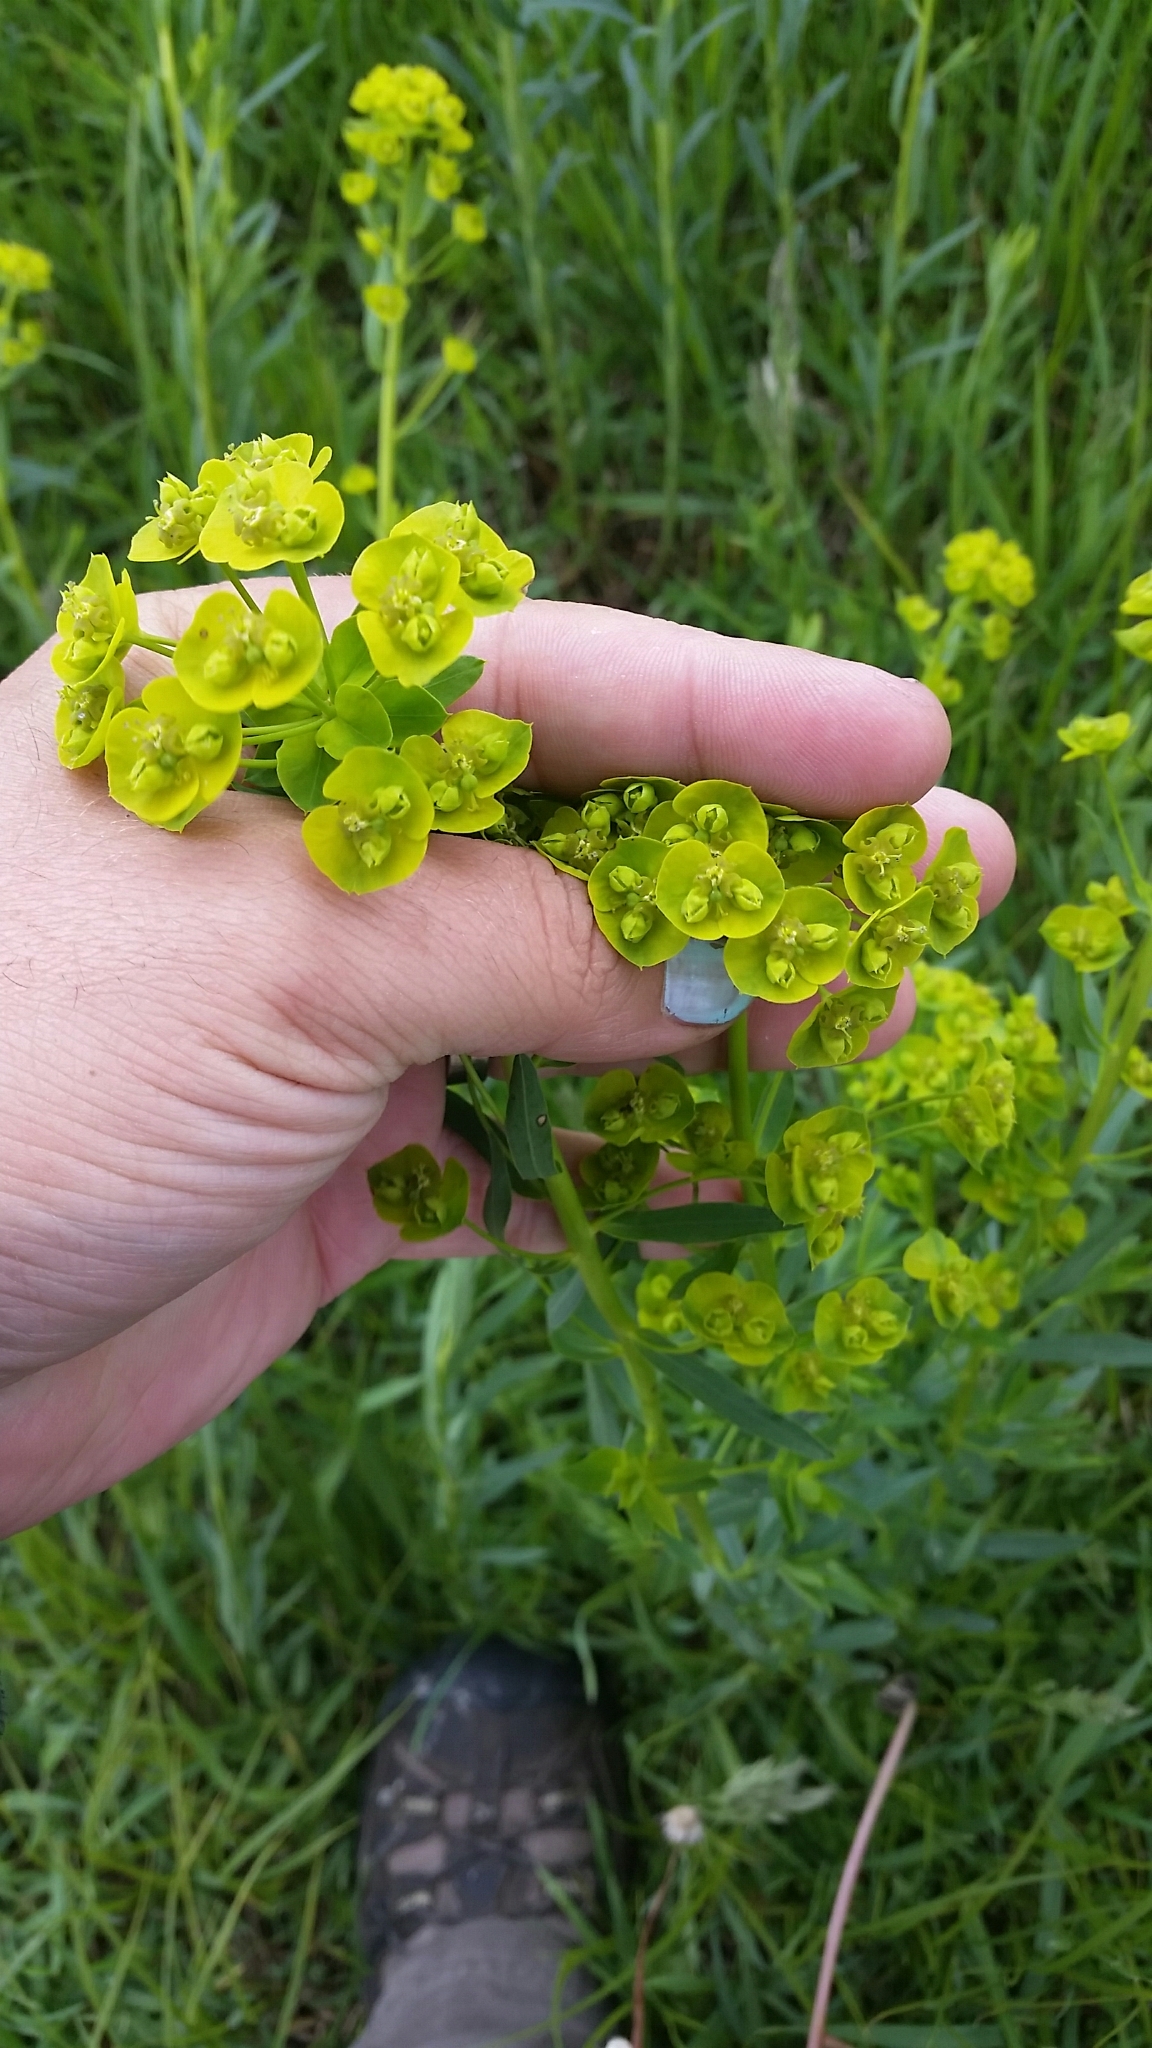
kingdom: Plantae
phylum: Tracheophyta
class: Magnoliopsida
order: Malpighiales
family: Euphorbiaceae
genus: Euphorbia
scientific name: Euphorbia virgata
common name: Leafy spurge
